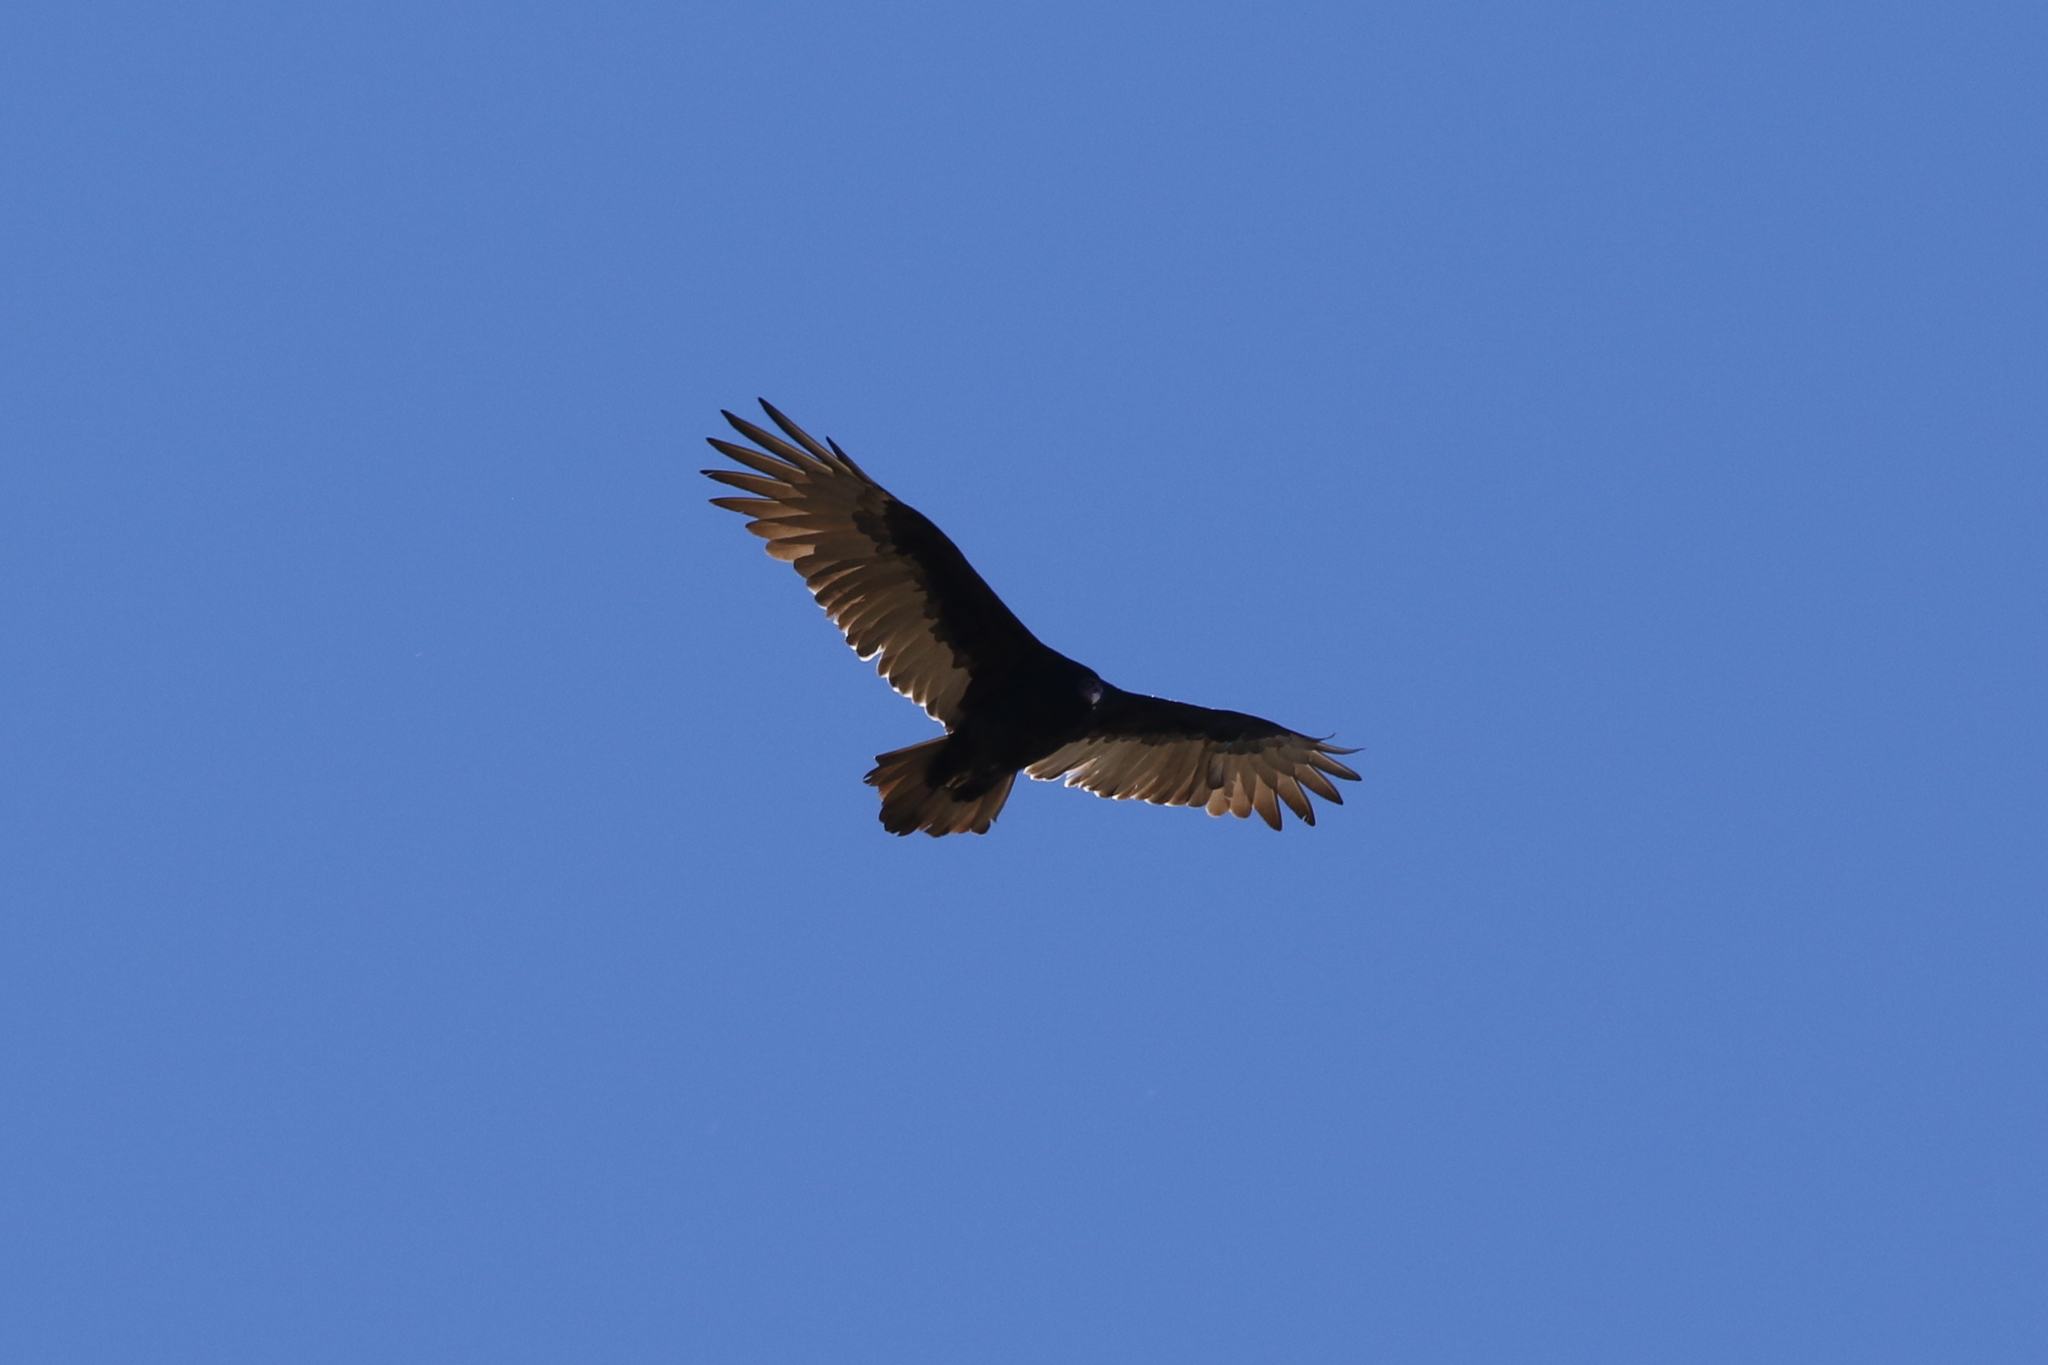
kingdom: Animalia
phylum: Chordata
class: Aves
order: Accipitriformes
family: Cathartidae
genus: Cathartes
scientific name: Cathartes aura
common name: Turkey vulture
